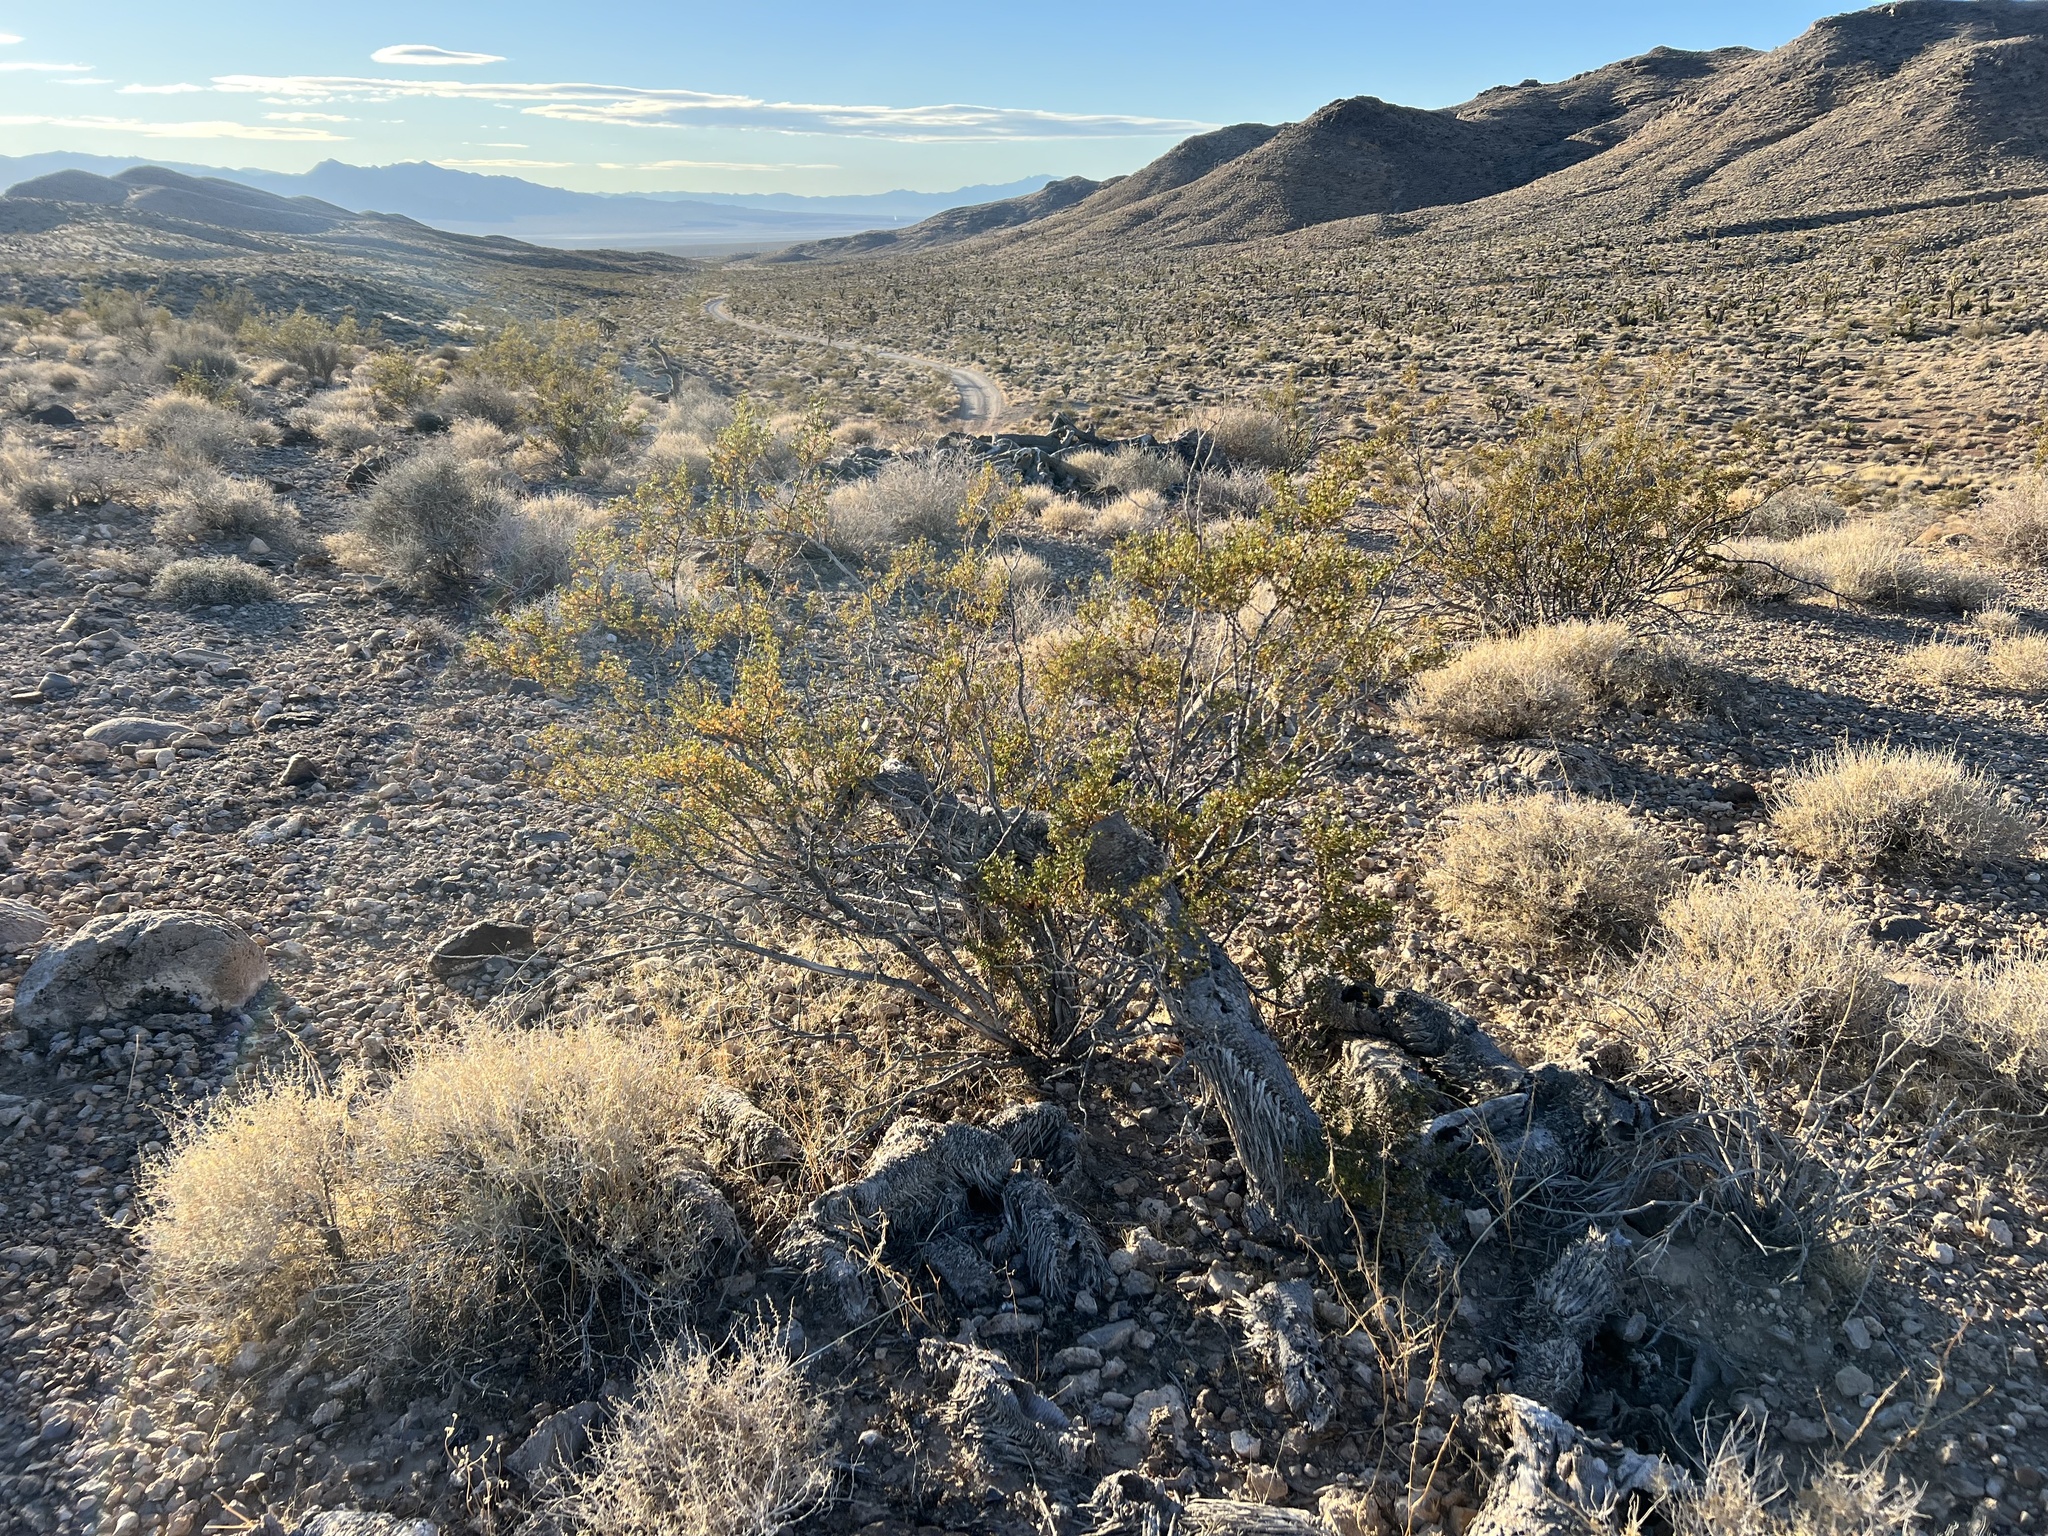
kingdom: Plantae
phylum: Tracheophyta
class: Magnoliopsida
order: Zygophyllales
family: Zygophyllaceae
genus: Larrea
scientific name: Larrea tridentata
